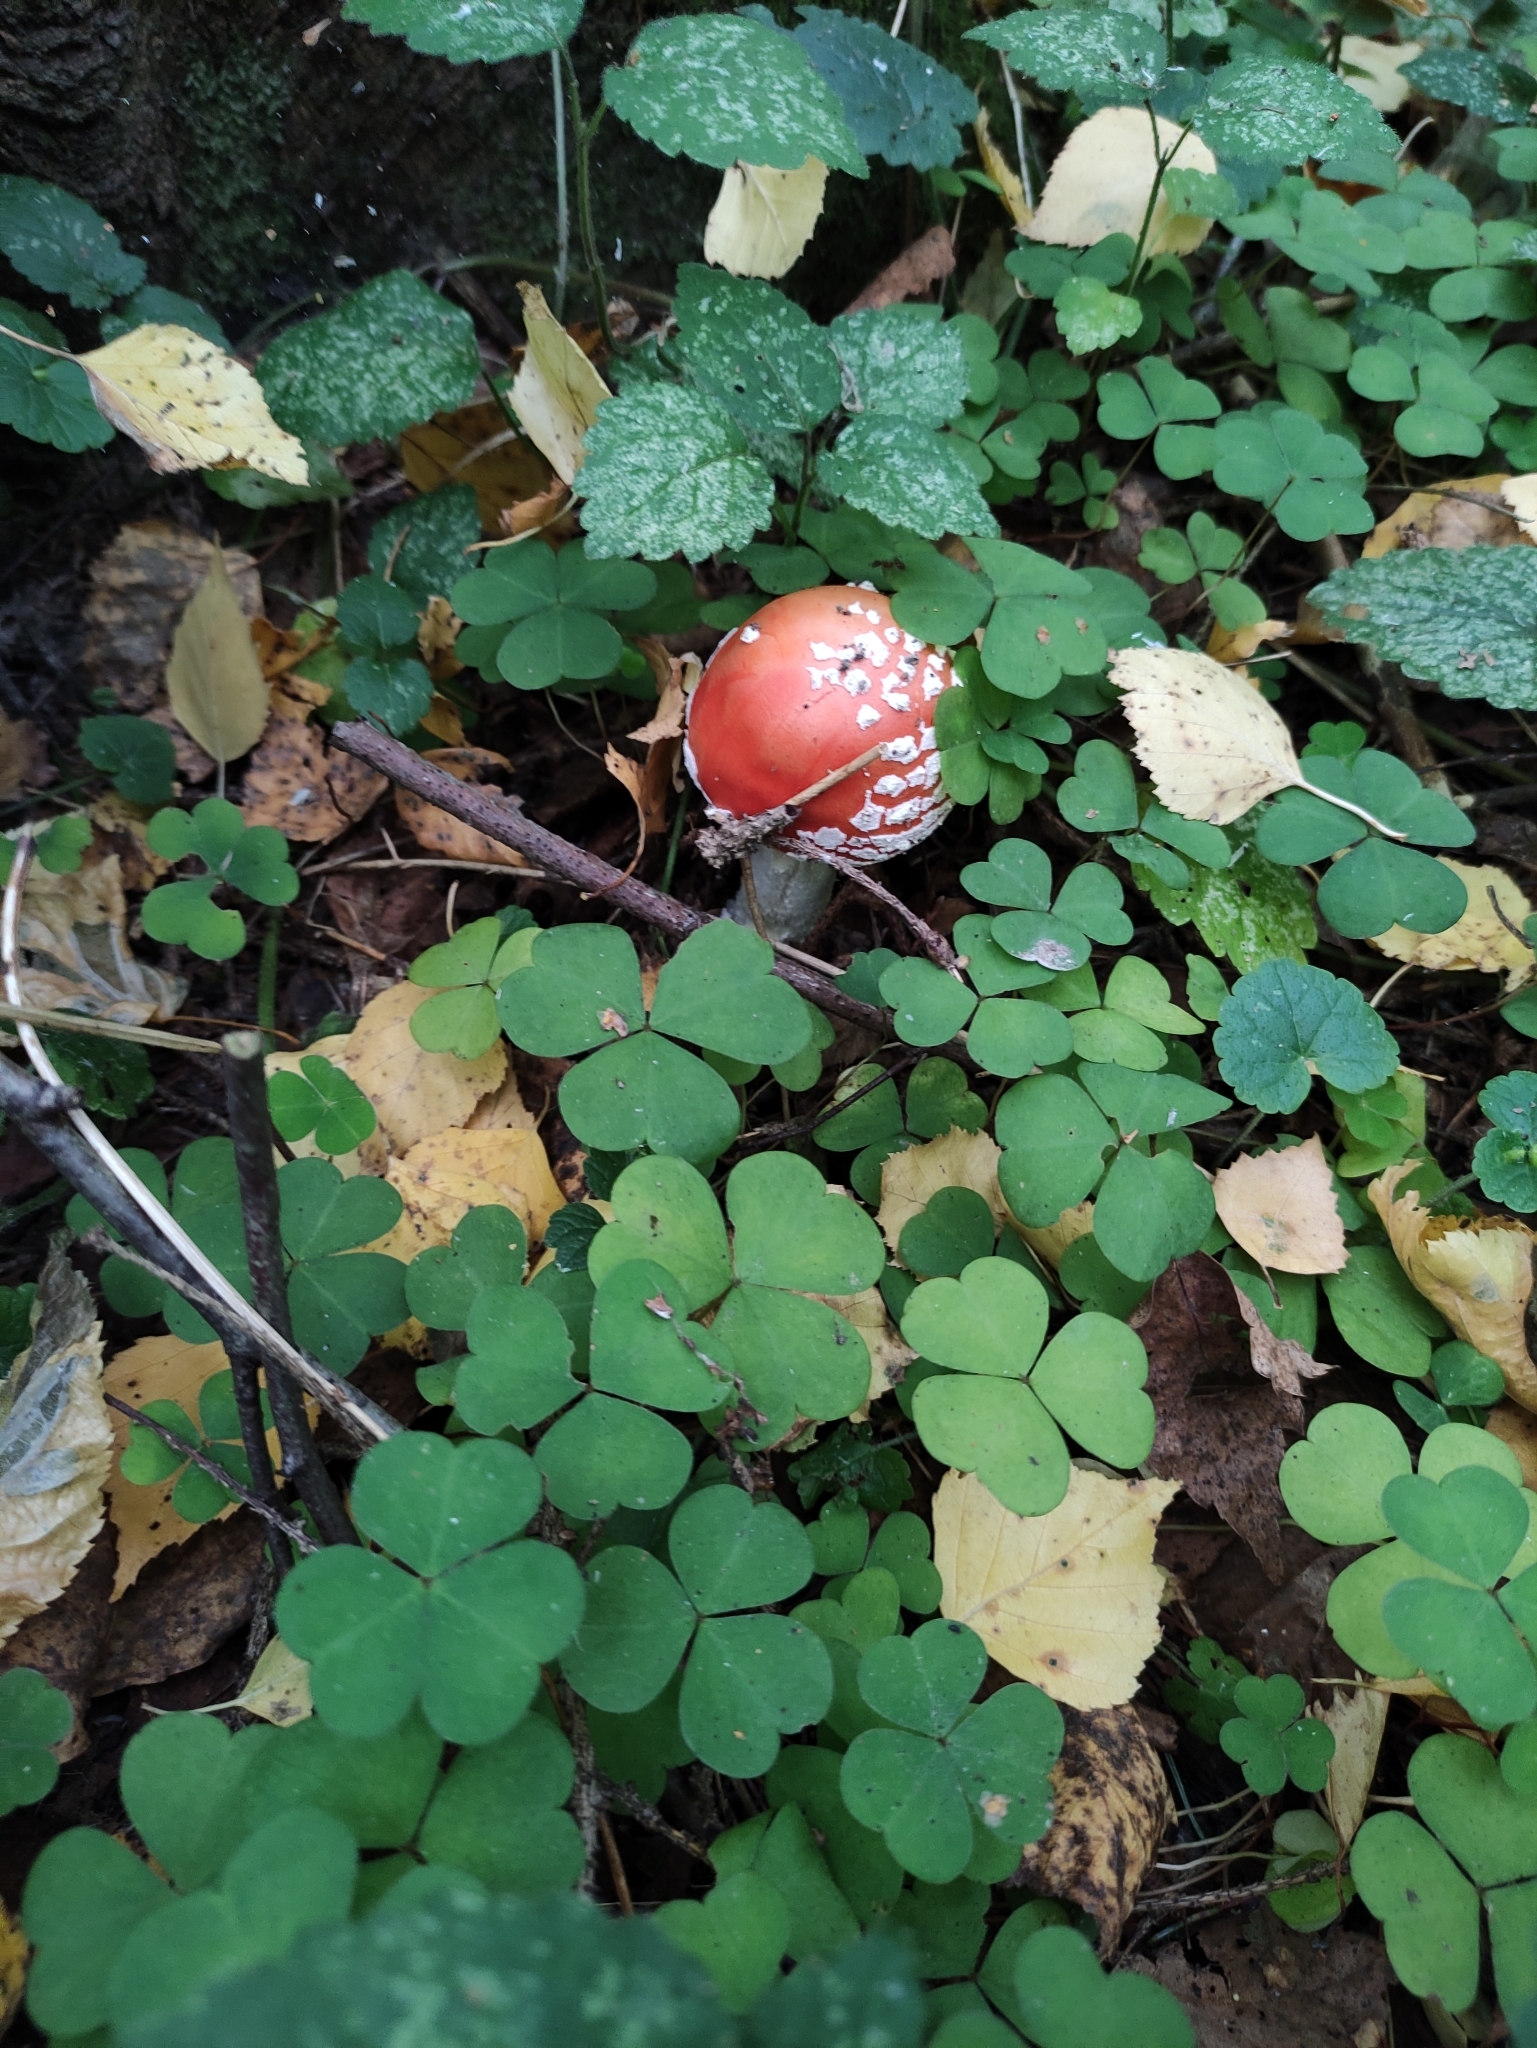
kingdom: Fungi
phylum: Basidiomycota
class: Agaricomycetes
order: Agaricales
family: Amanitaceae
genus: Amanita
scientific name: Amanita muscaria
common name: Fly agaric
